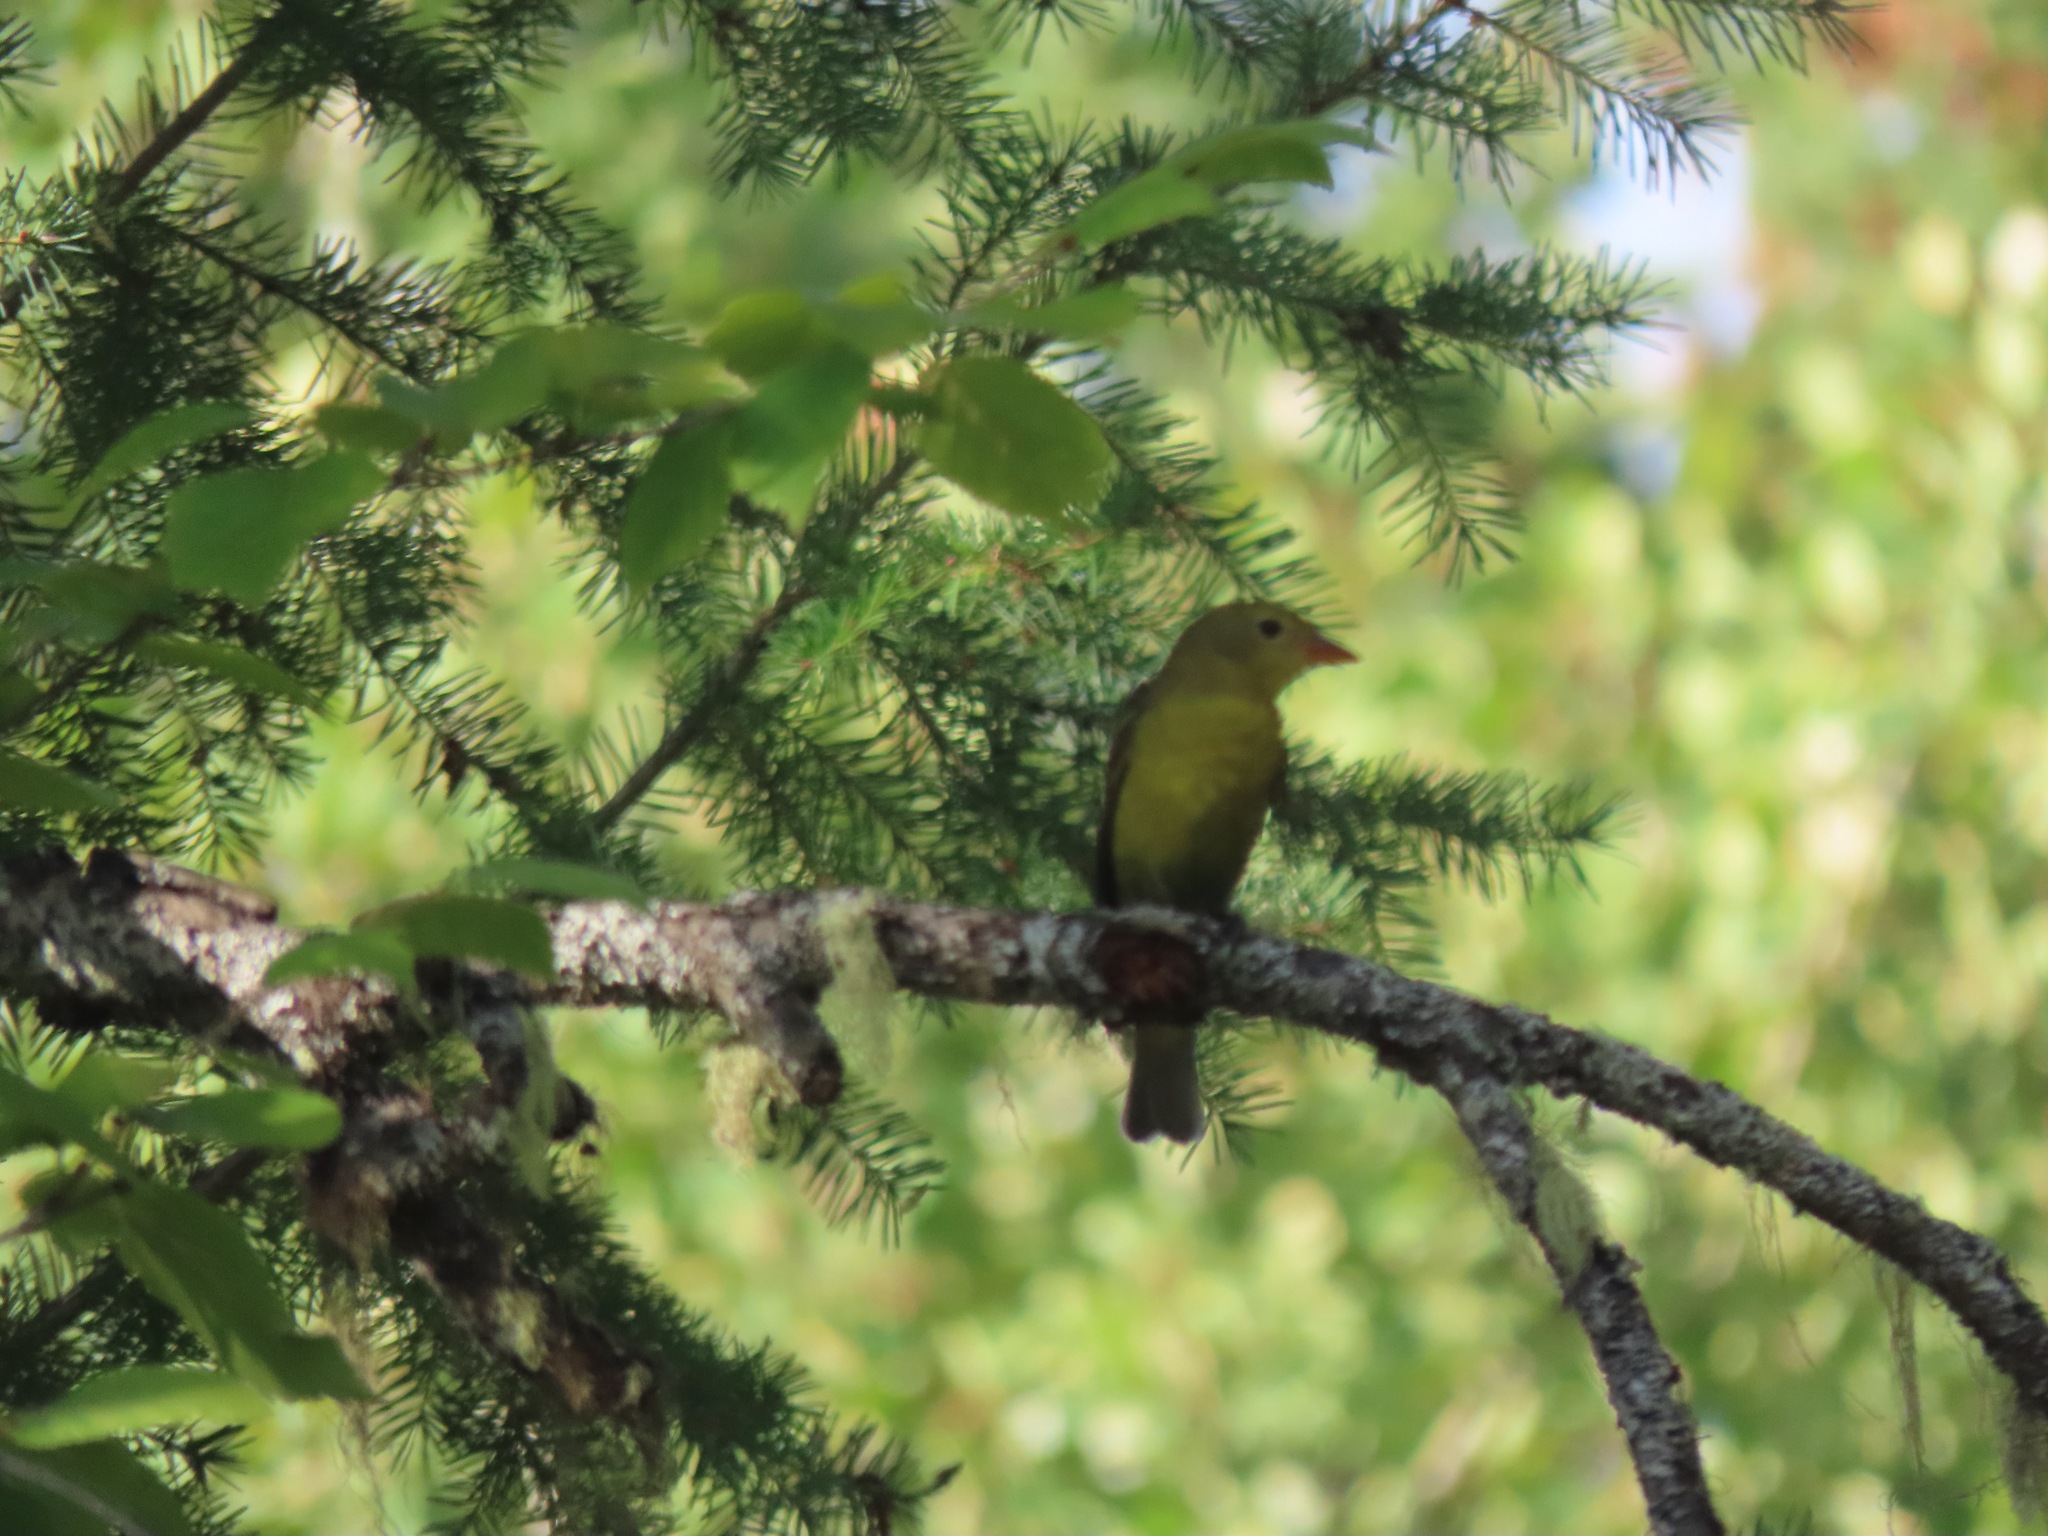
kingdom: Animalia
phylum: Chordata
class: Aves
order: Passeriformes
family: Cardinalidae
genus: Piranga
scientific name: Piranga ludoviciana
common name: Western tanager
